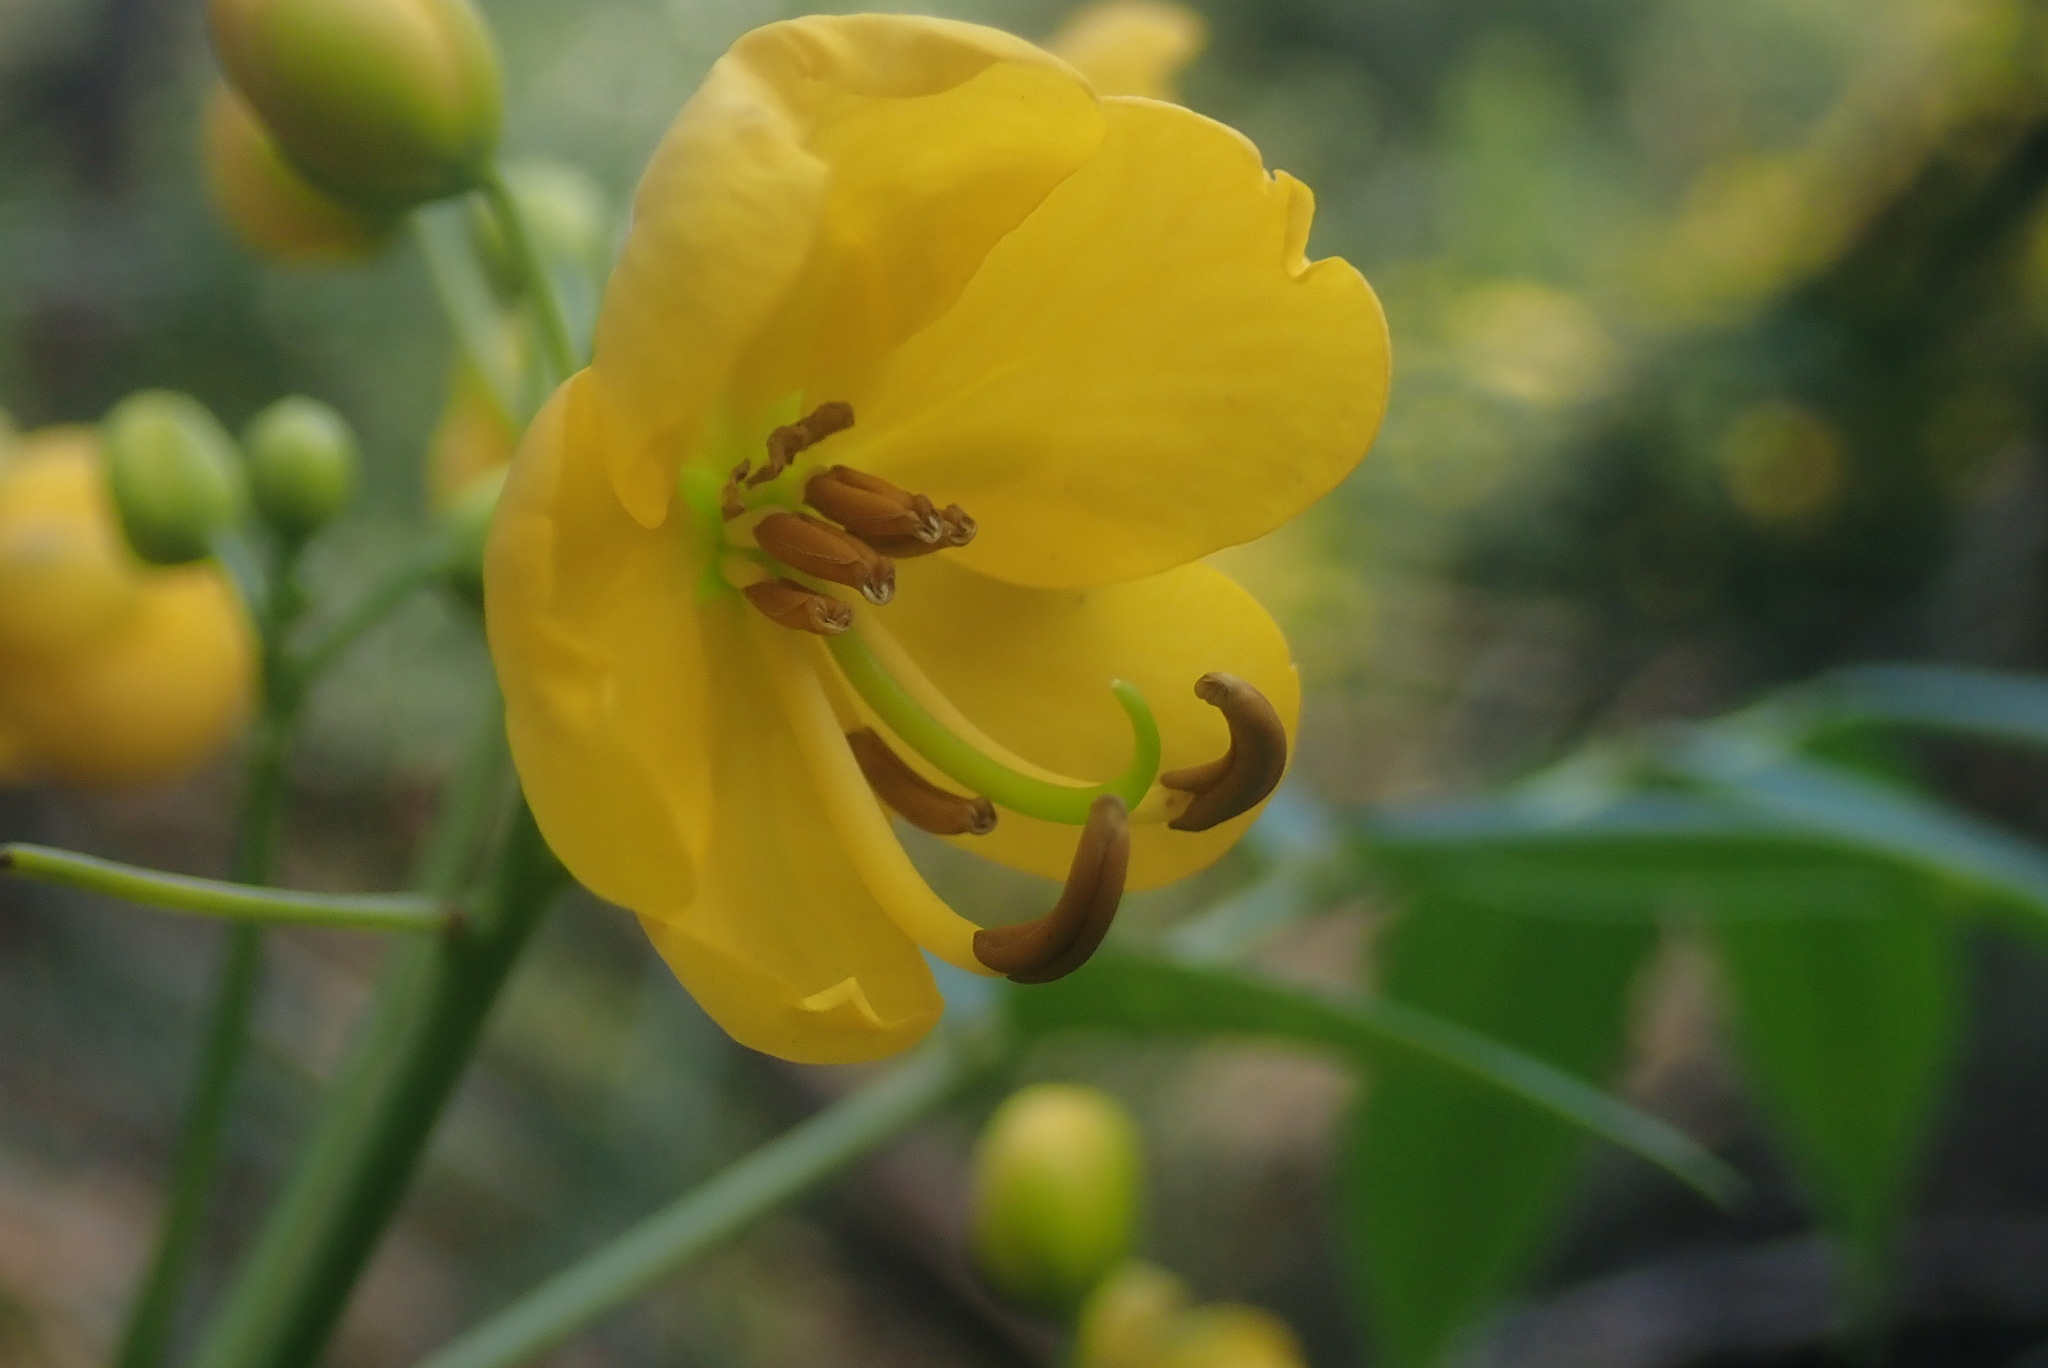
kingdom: Plantae
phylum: Tracheophyta
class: Magnoliopsida
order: Fabales
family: Fabaceae
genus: Senna
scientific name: Senna septemtrionalis
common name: Arsenic bush
